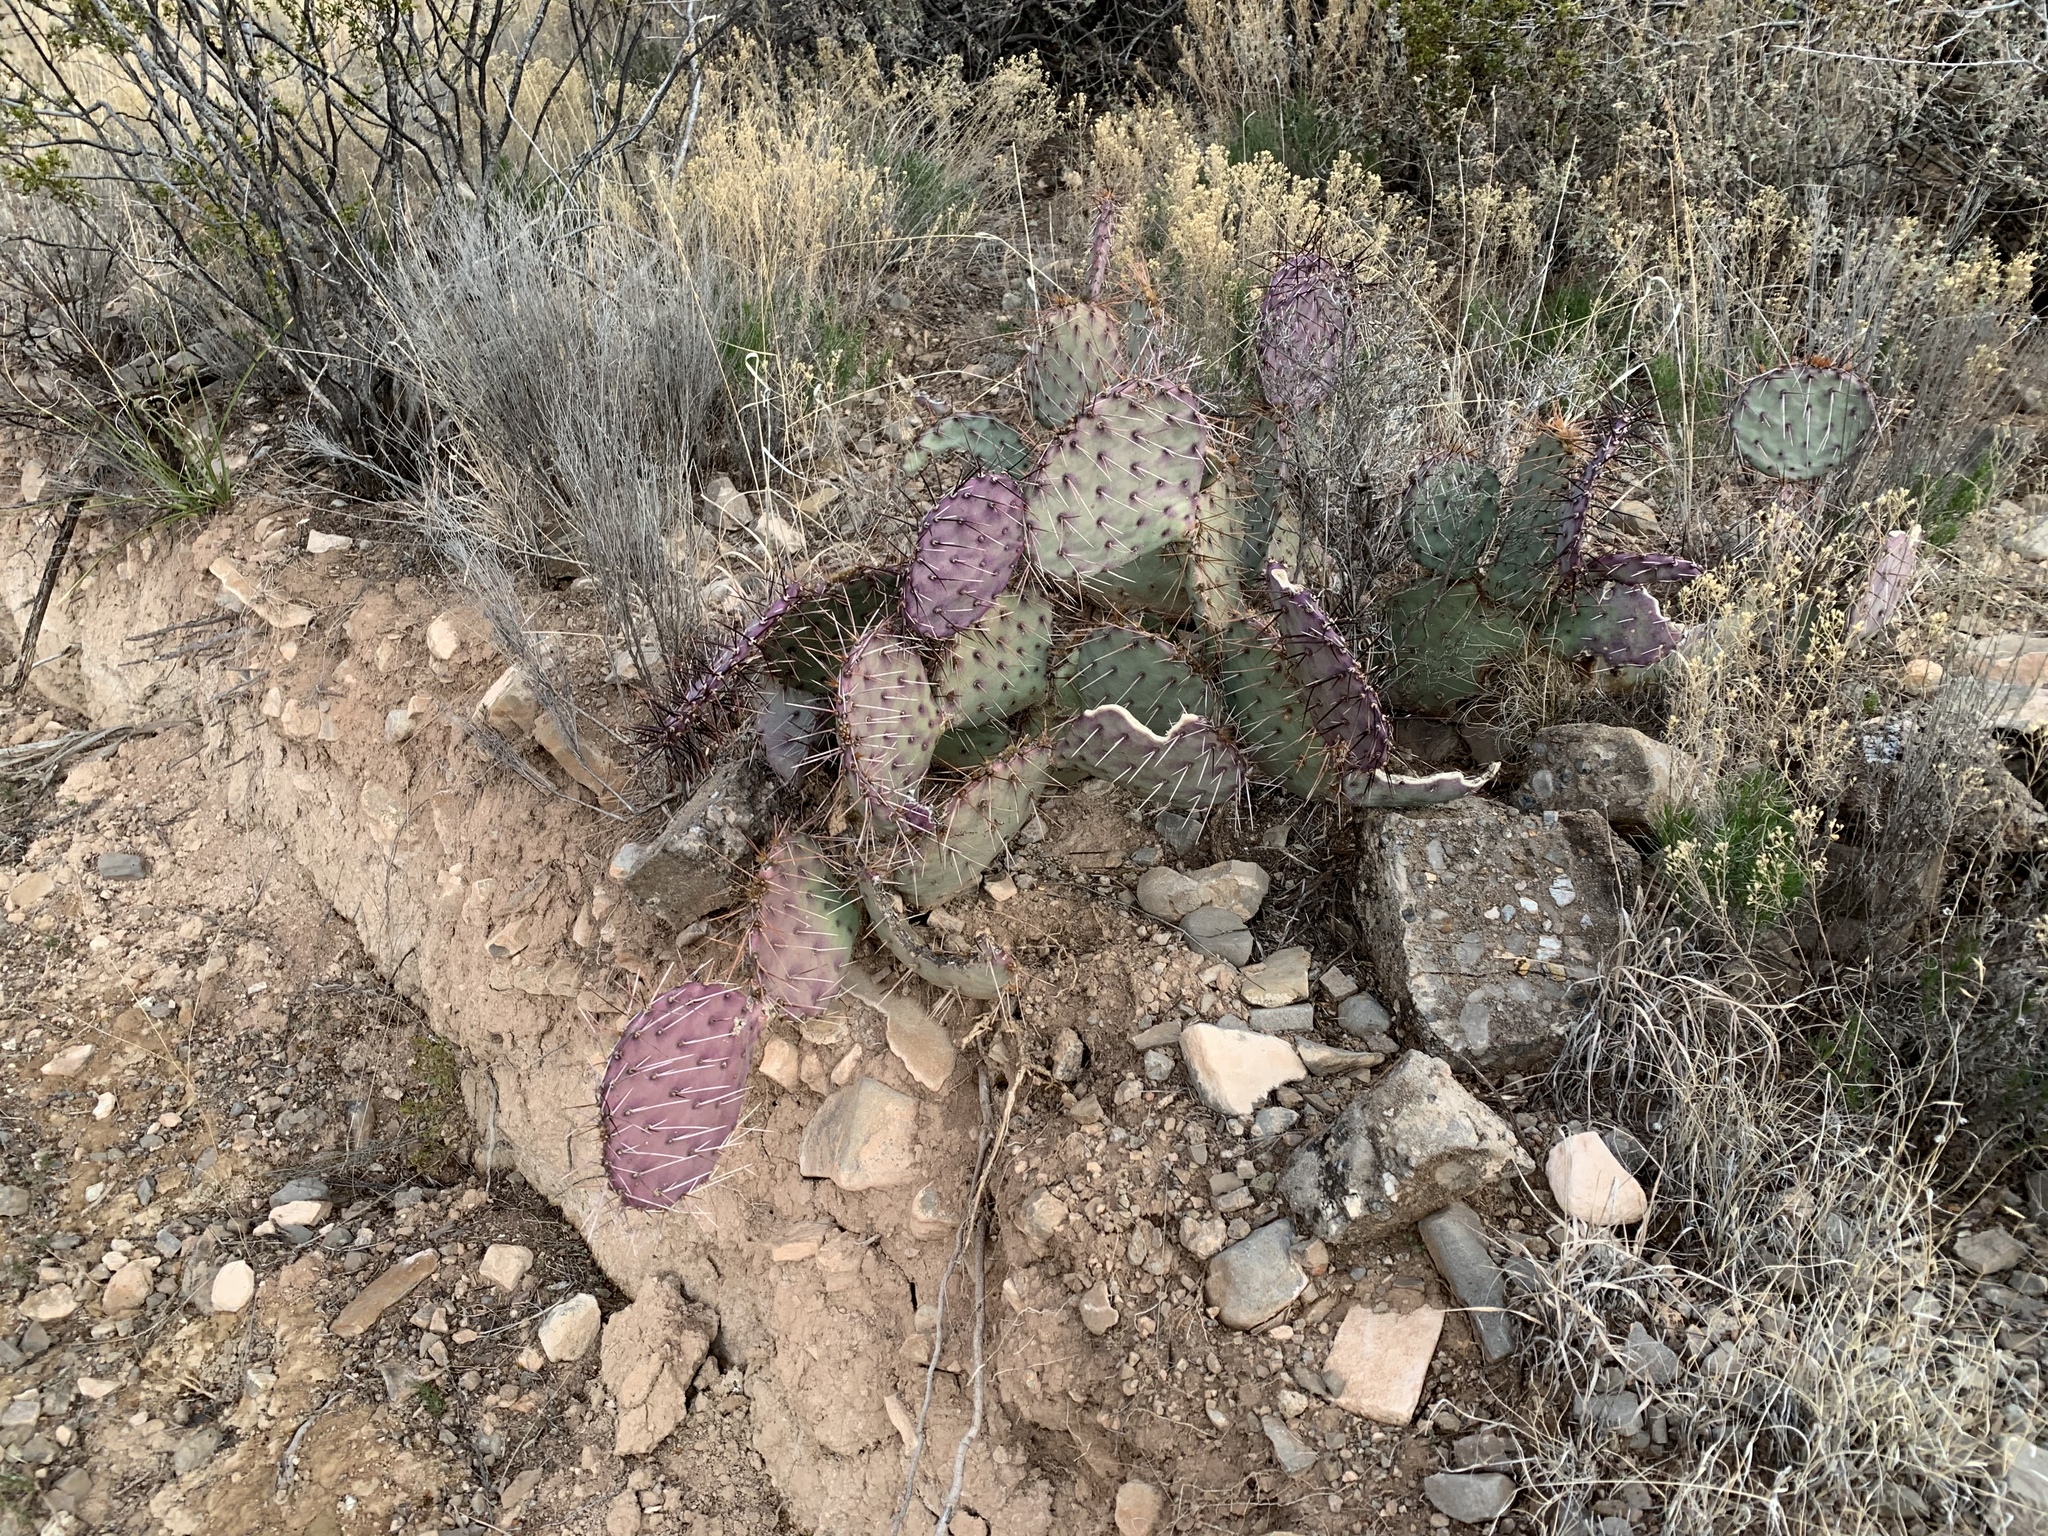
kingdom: Plantae
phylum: Tracheophyta
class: Magnoliopsida
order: Caryophyllales
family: Cactaceae
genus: Opuntia
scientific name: Opuntia macrocentra
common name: Purple prickly-pear
